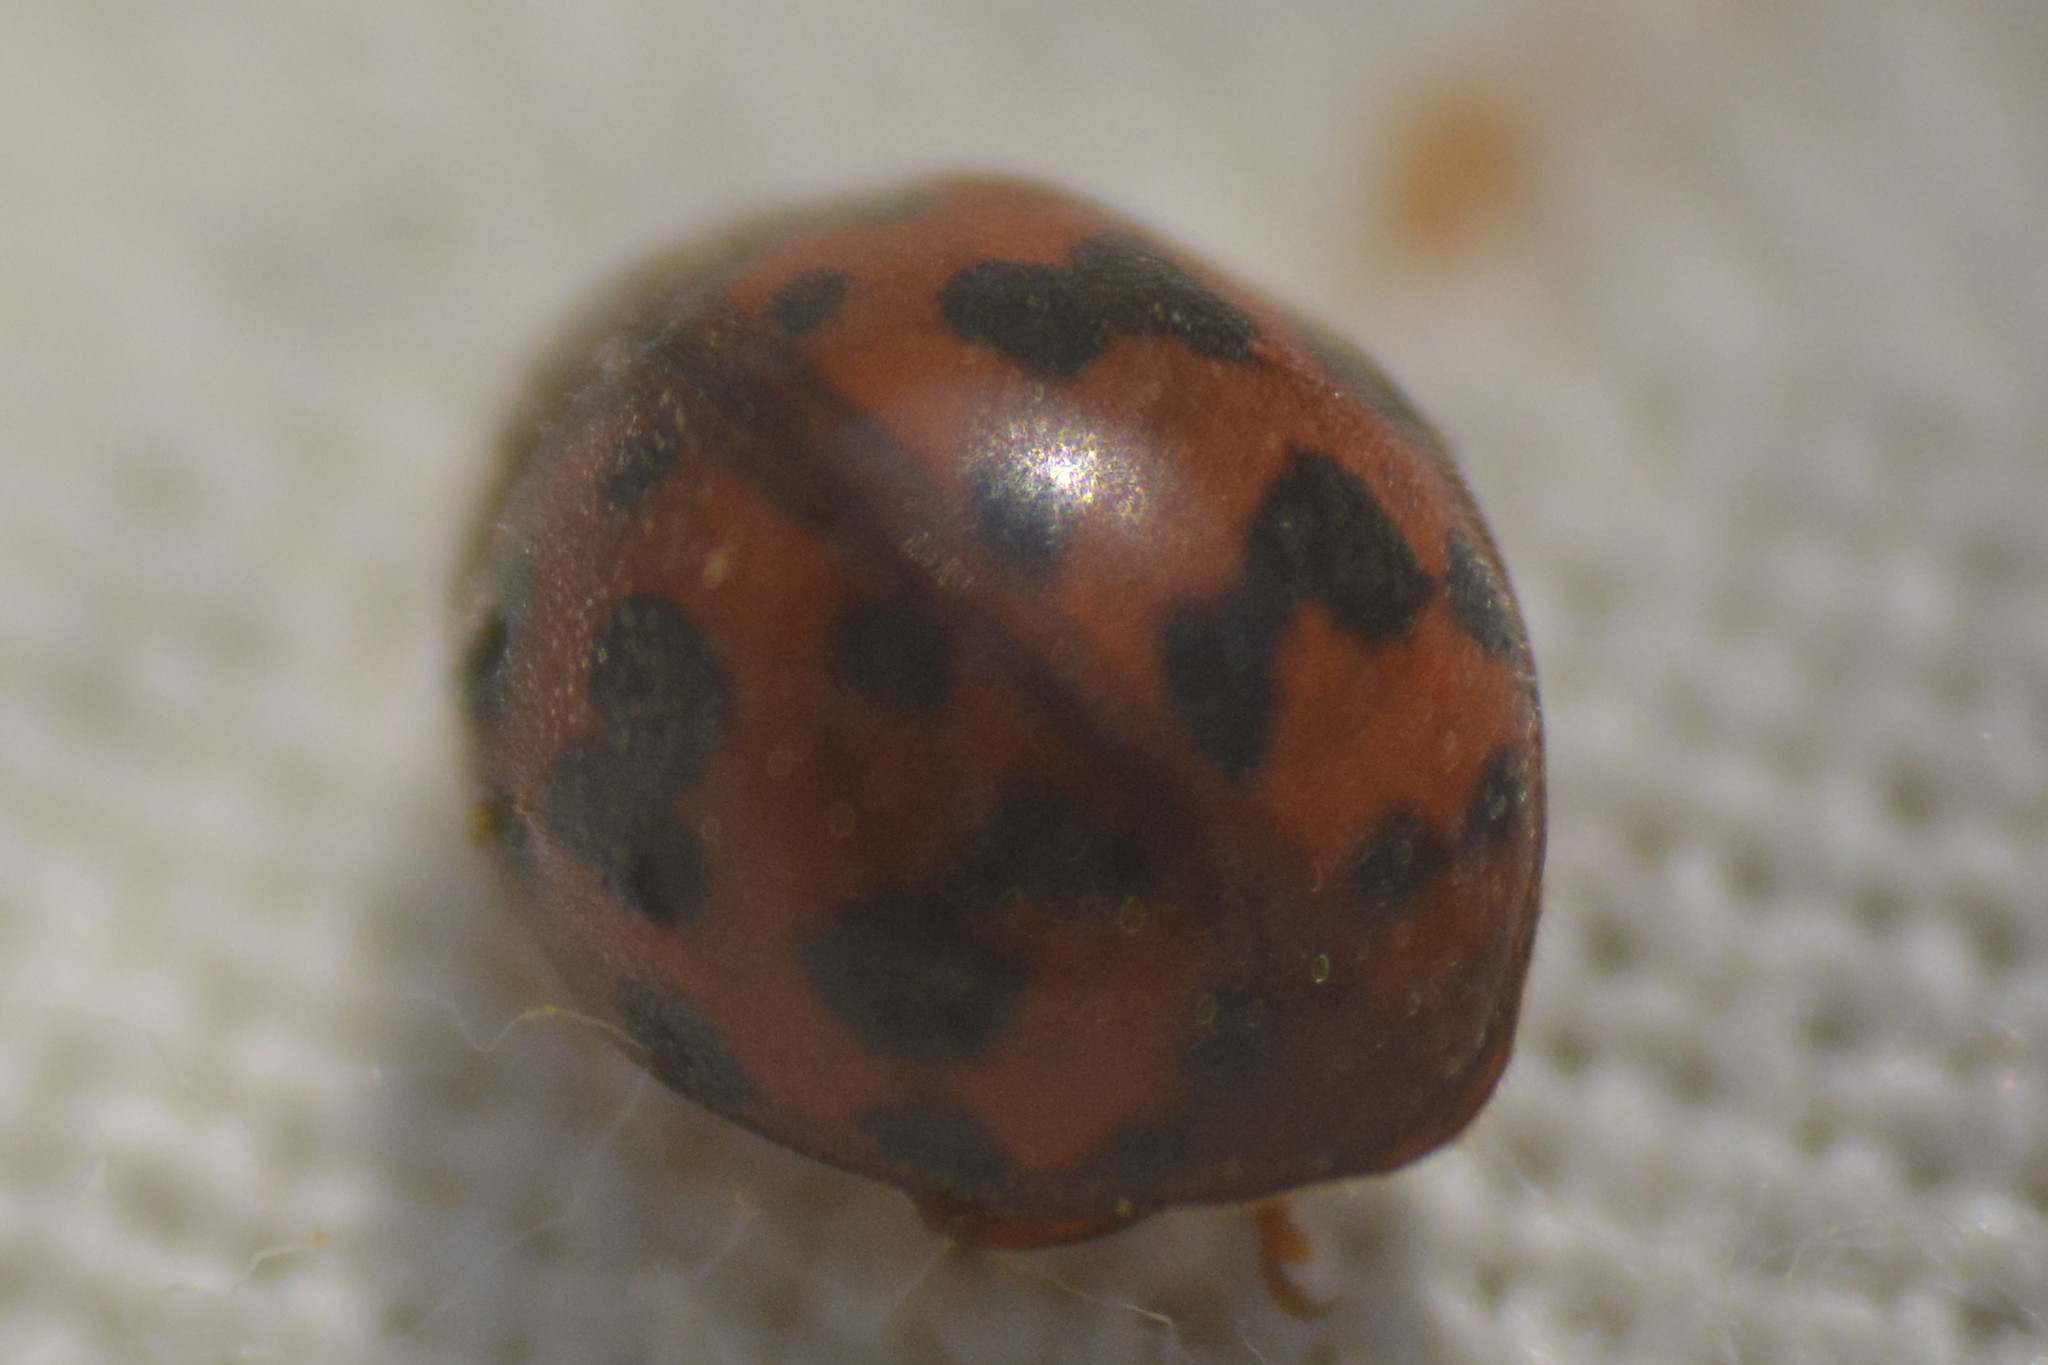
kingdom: Animalia
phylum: Arthropoda
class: Insecta
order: Coleoptera
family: Coccinellidae
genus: Subcoccinella
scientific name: Subcoccinella vigintiquatuorpunctata
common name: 24-spot ladybird
